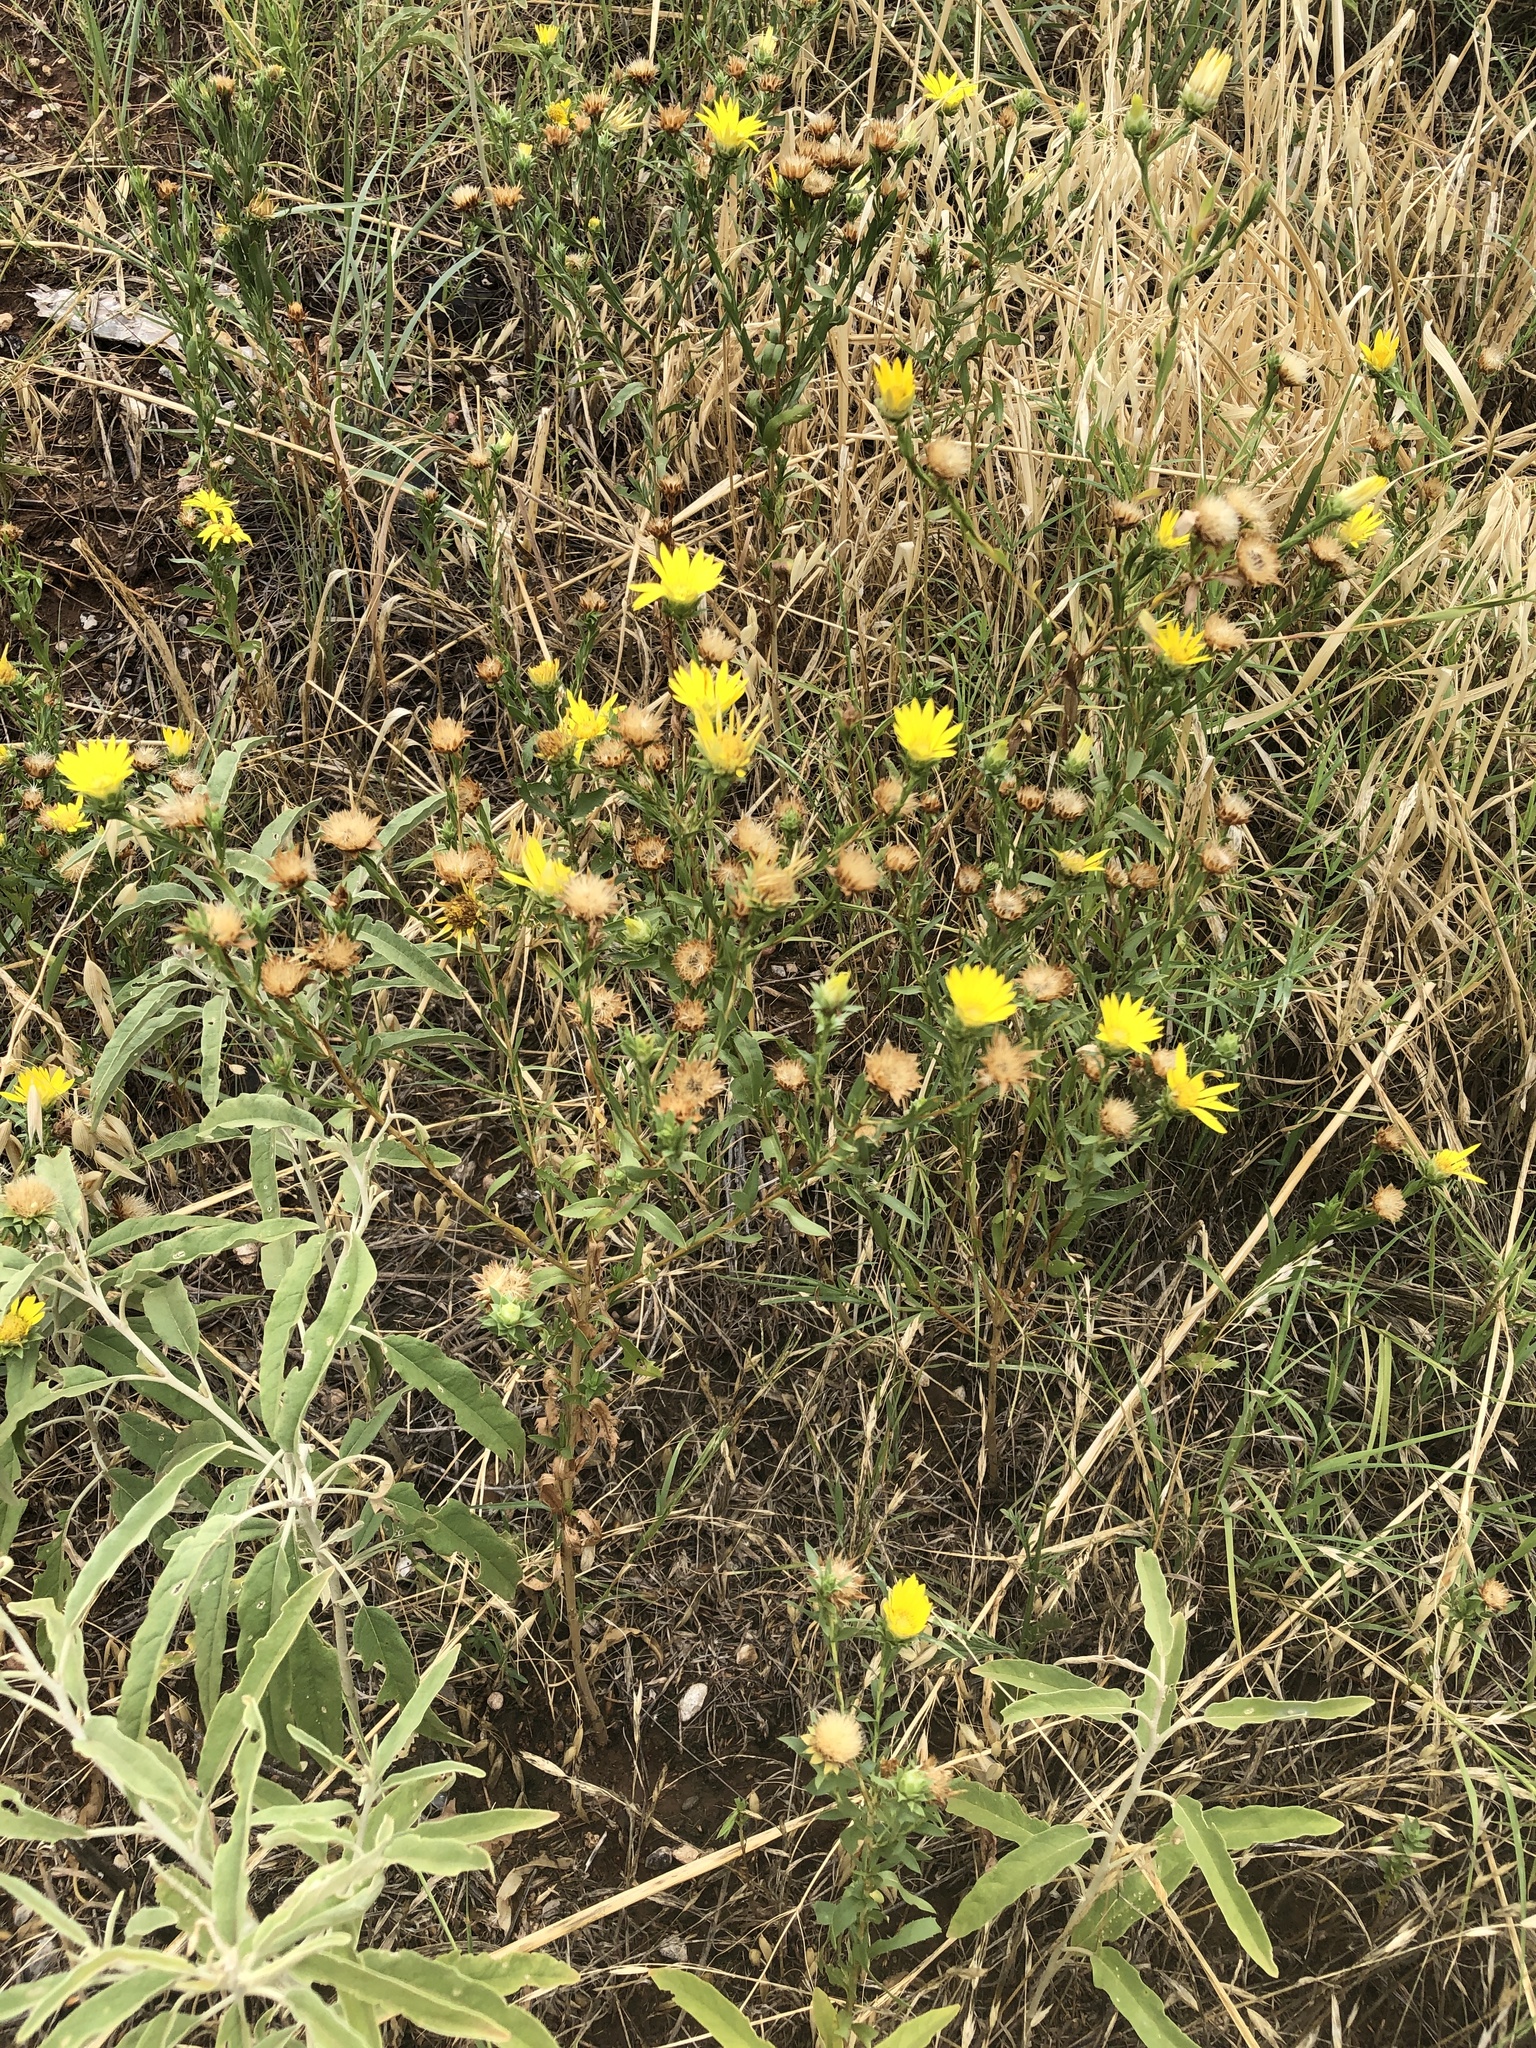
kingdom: Plantae
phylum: Tracheophyta
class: Magnoliopsida
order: Asterales
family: Asteraceae
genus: Xanthisma
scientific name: Xanthisma texanum
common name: Texas sleepy daisy
